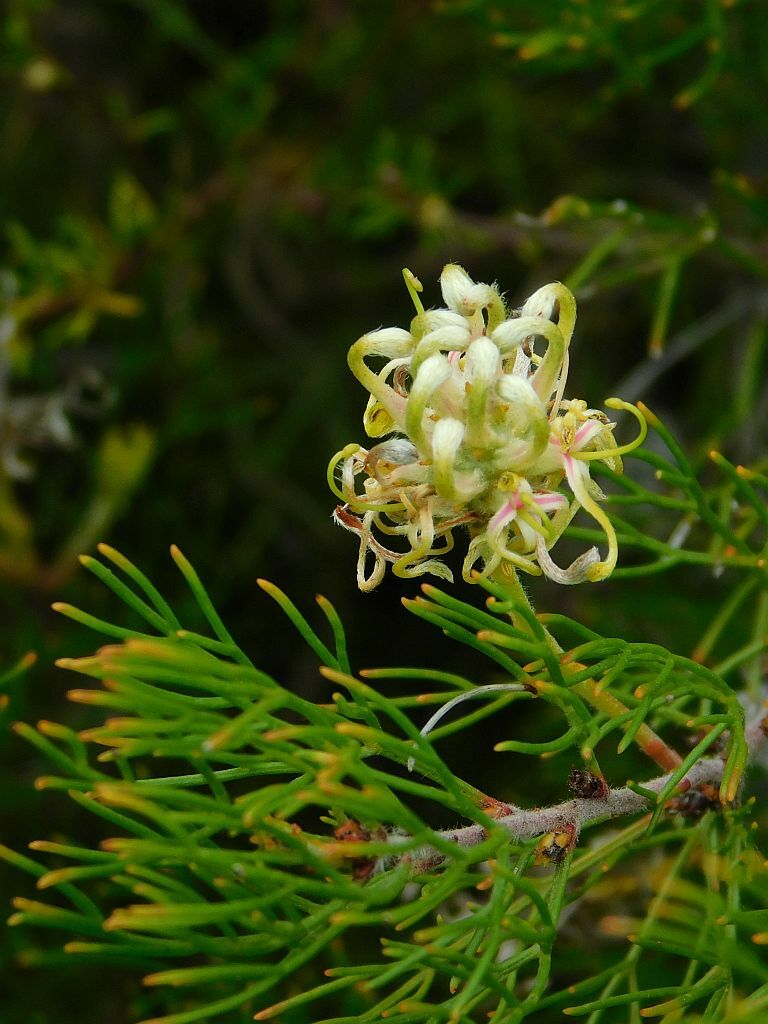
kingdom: Plantae
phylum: Tracheophyta
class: Magnoliopsida
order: Proteales
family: Proteaceae
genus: Serruria
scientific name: Serruria
